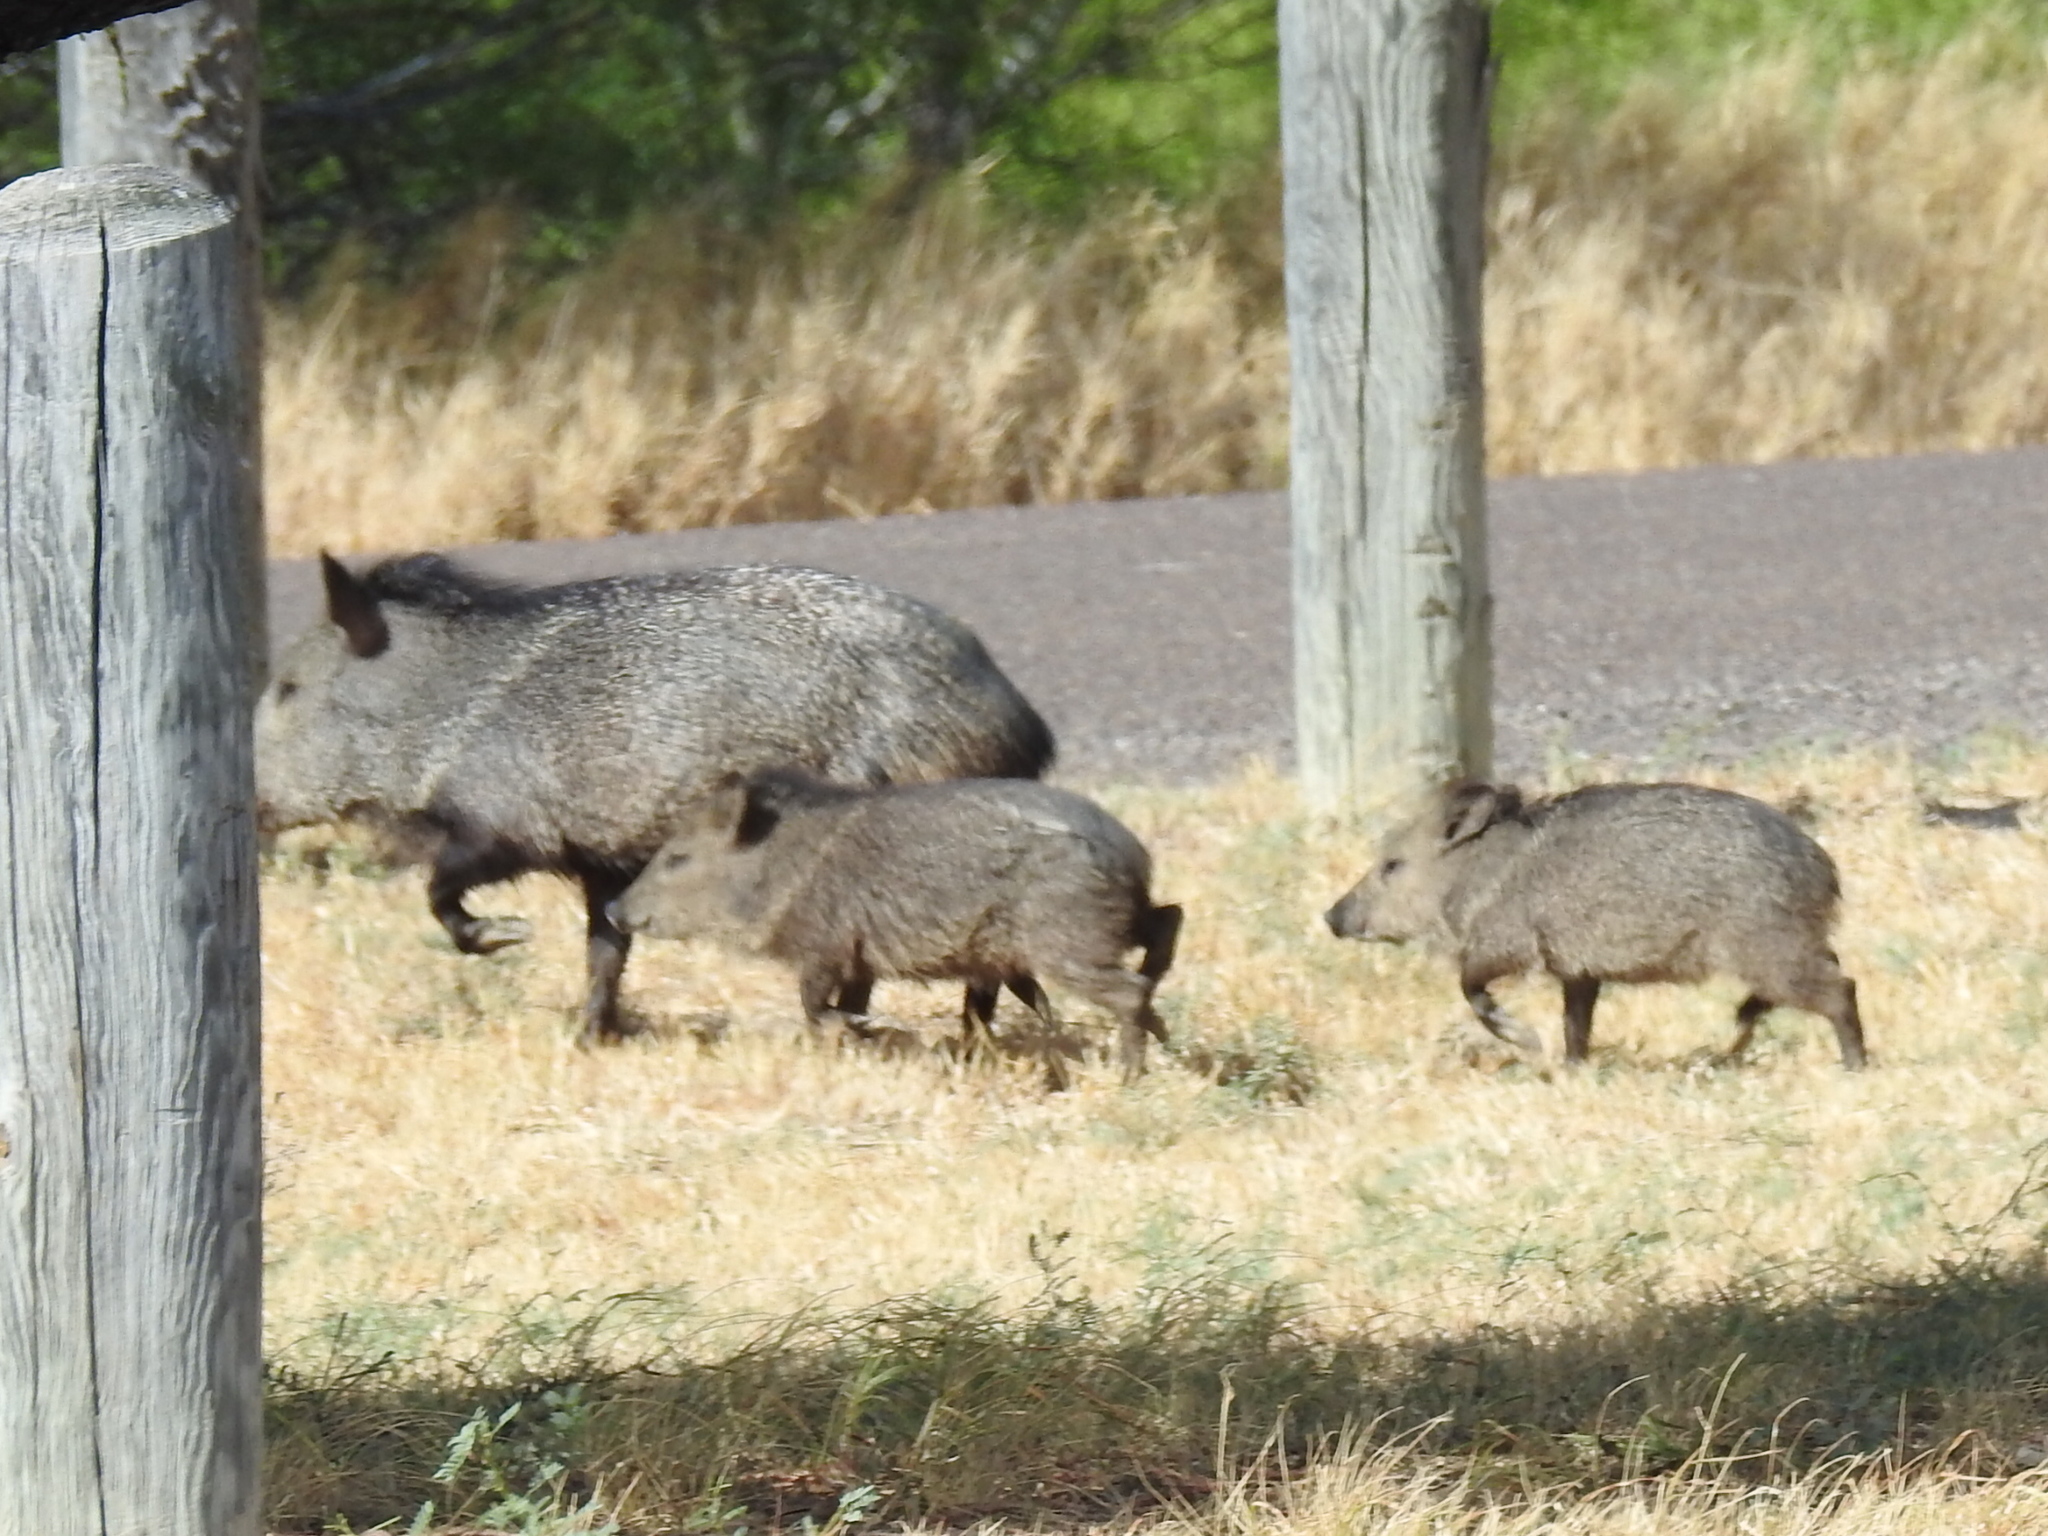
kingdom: Animalia
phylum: Chordata
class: Mammalia
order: Artiodactyla
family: Tayassuidae
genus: Pecari
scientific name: Pecari tajacu
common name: Collared peccary
